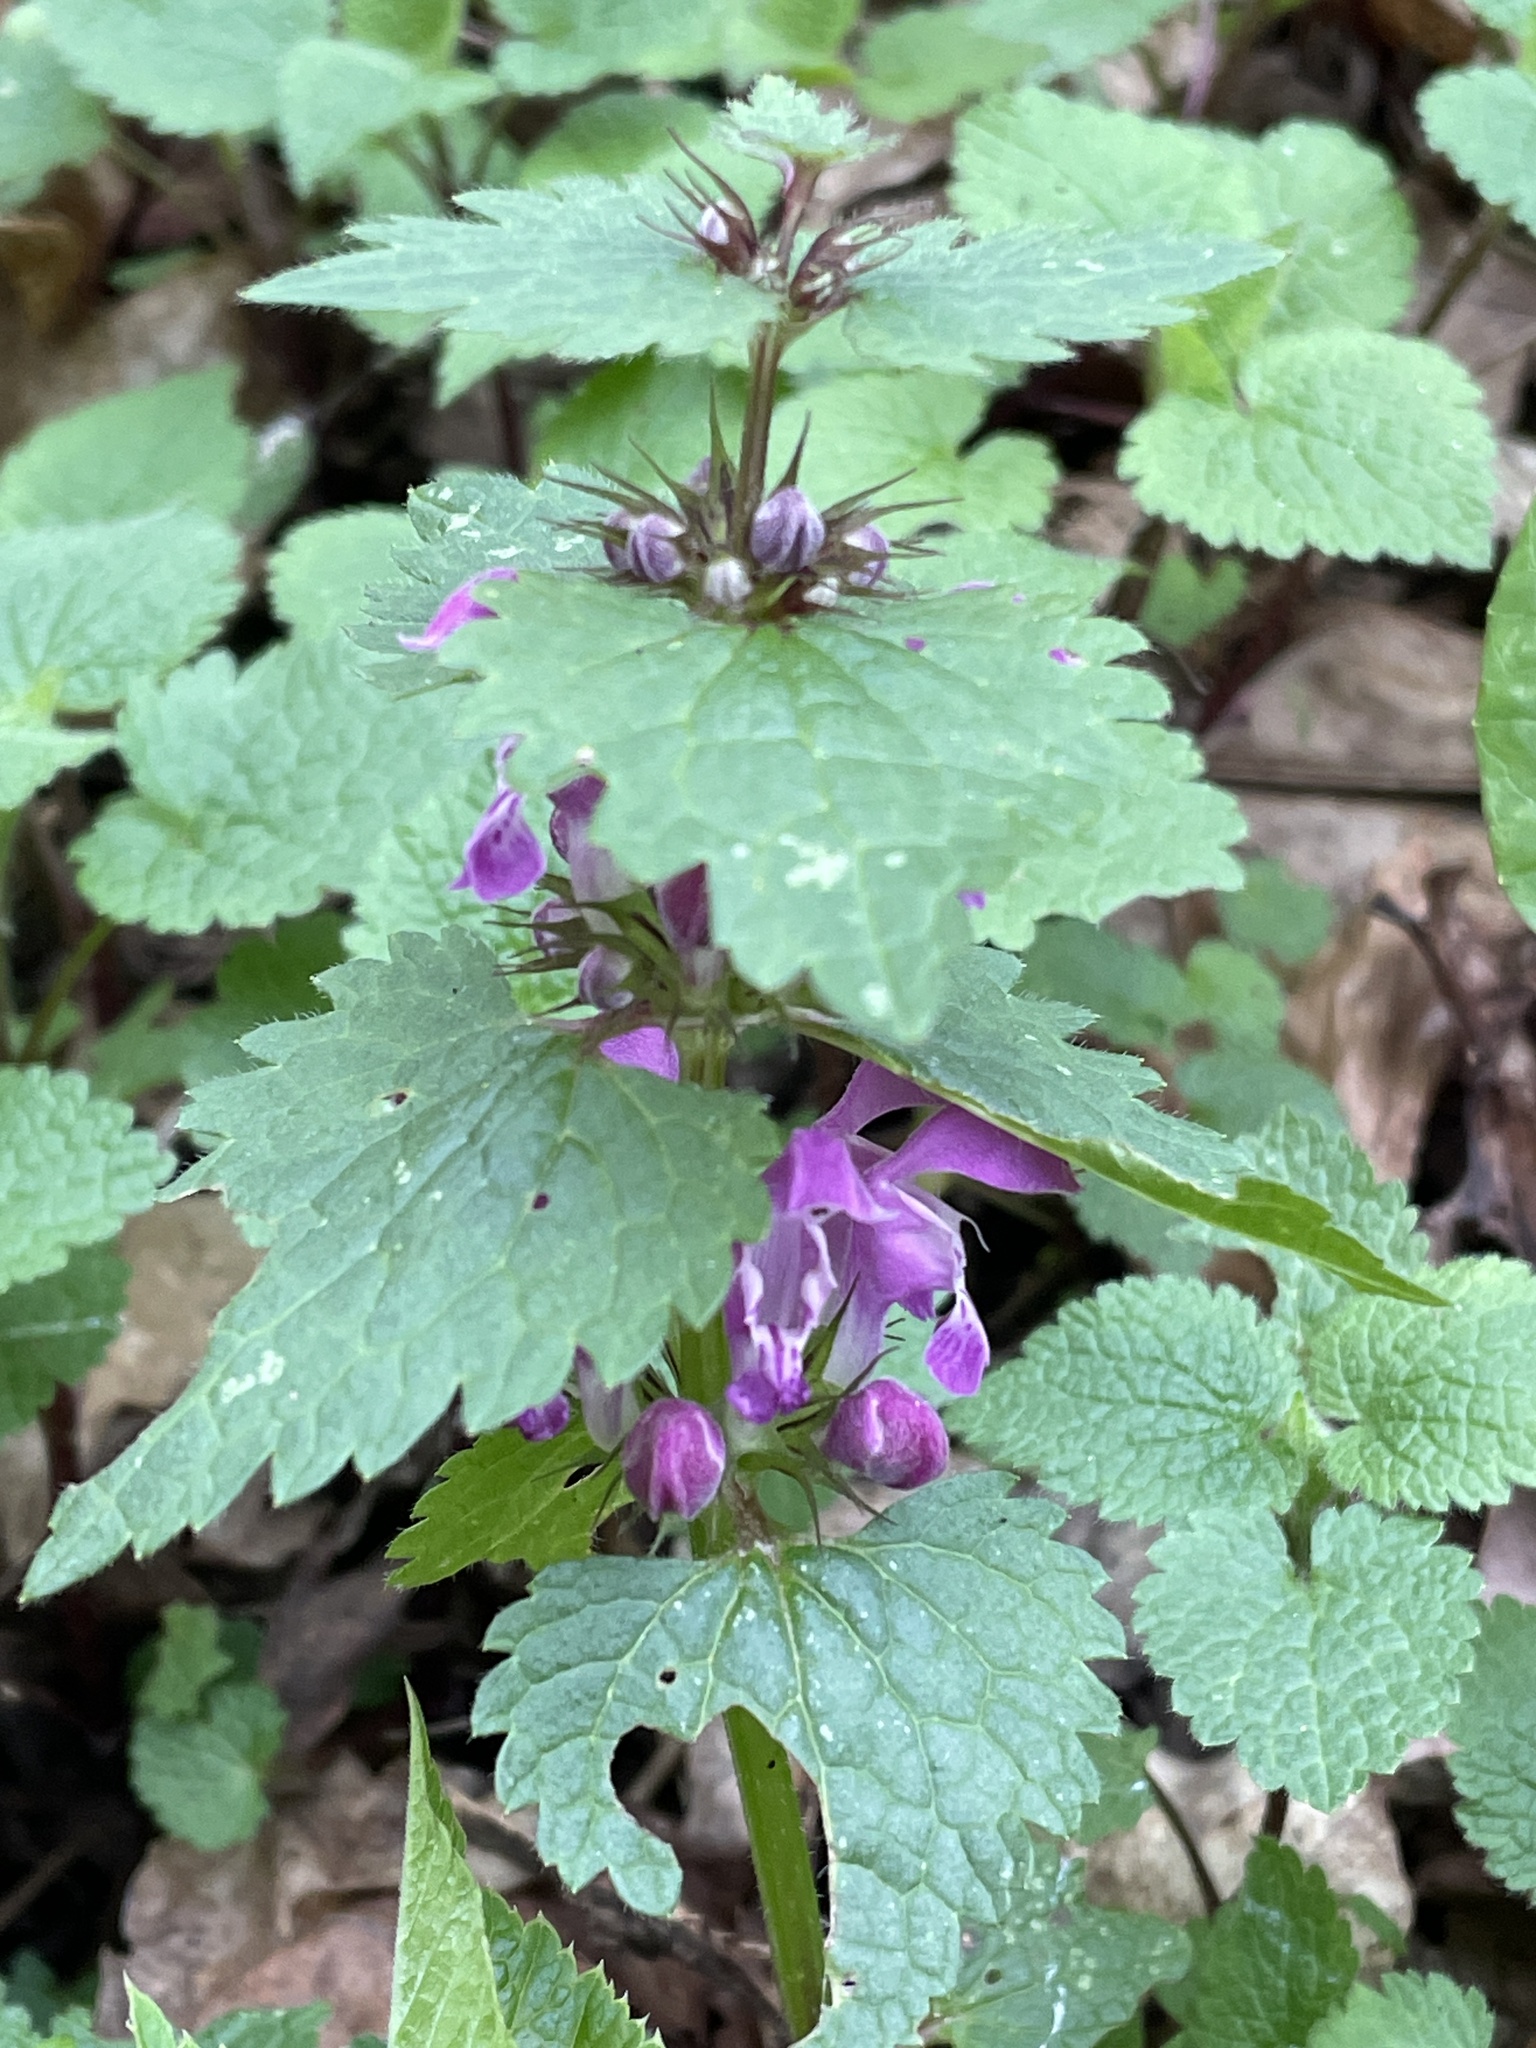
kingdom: Plantae
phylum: Tracheophyta
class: Magnoliopsida
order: Lamiales
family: Lamiaceae
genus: Lamium
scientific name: Lamium maculatum
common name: Spotted dead-nettle
